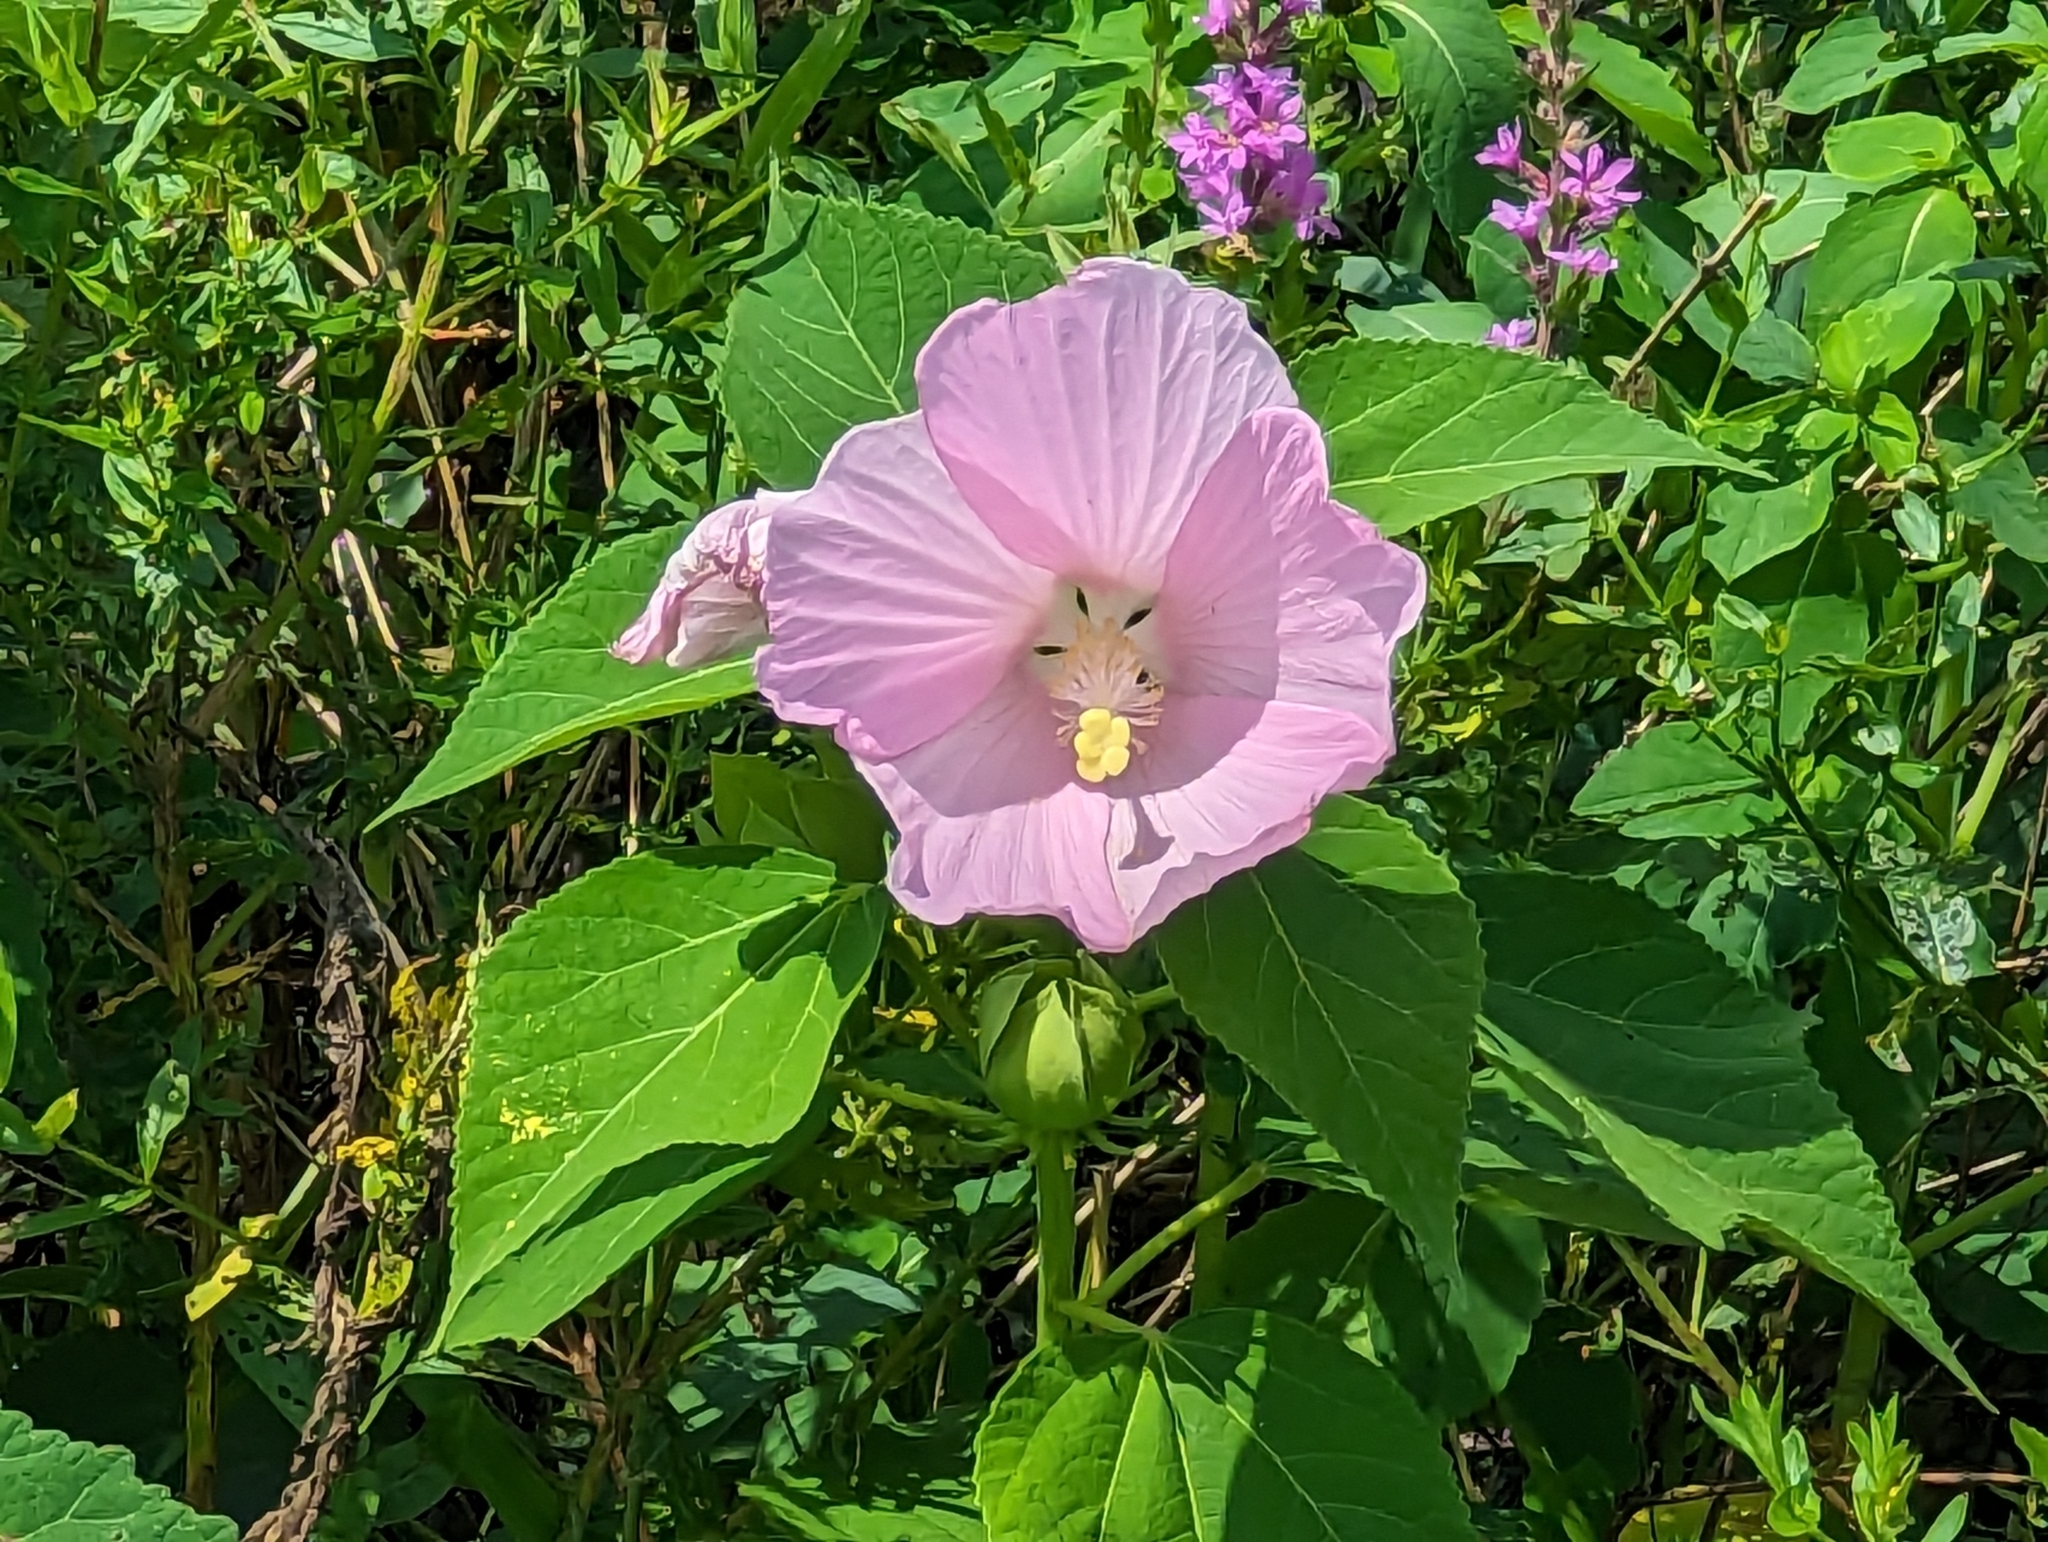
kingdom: Plantae
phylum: Tracheophyta
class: Magnoliopsida
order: Malvales
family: Malvaceae
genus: Hibiscus
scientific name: Hibiscus moscheutos
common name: Common rose-mallow
